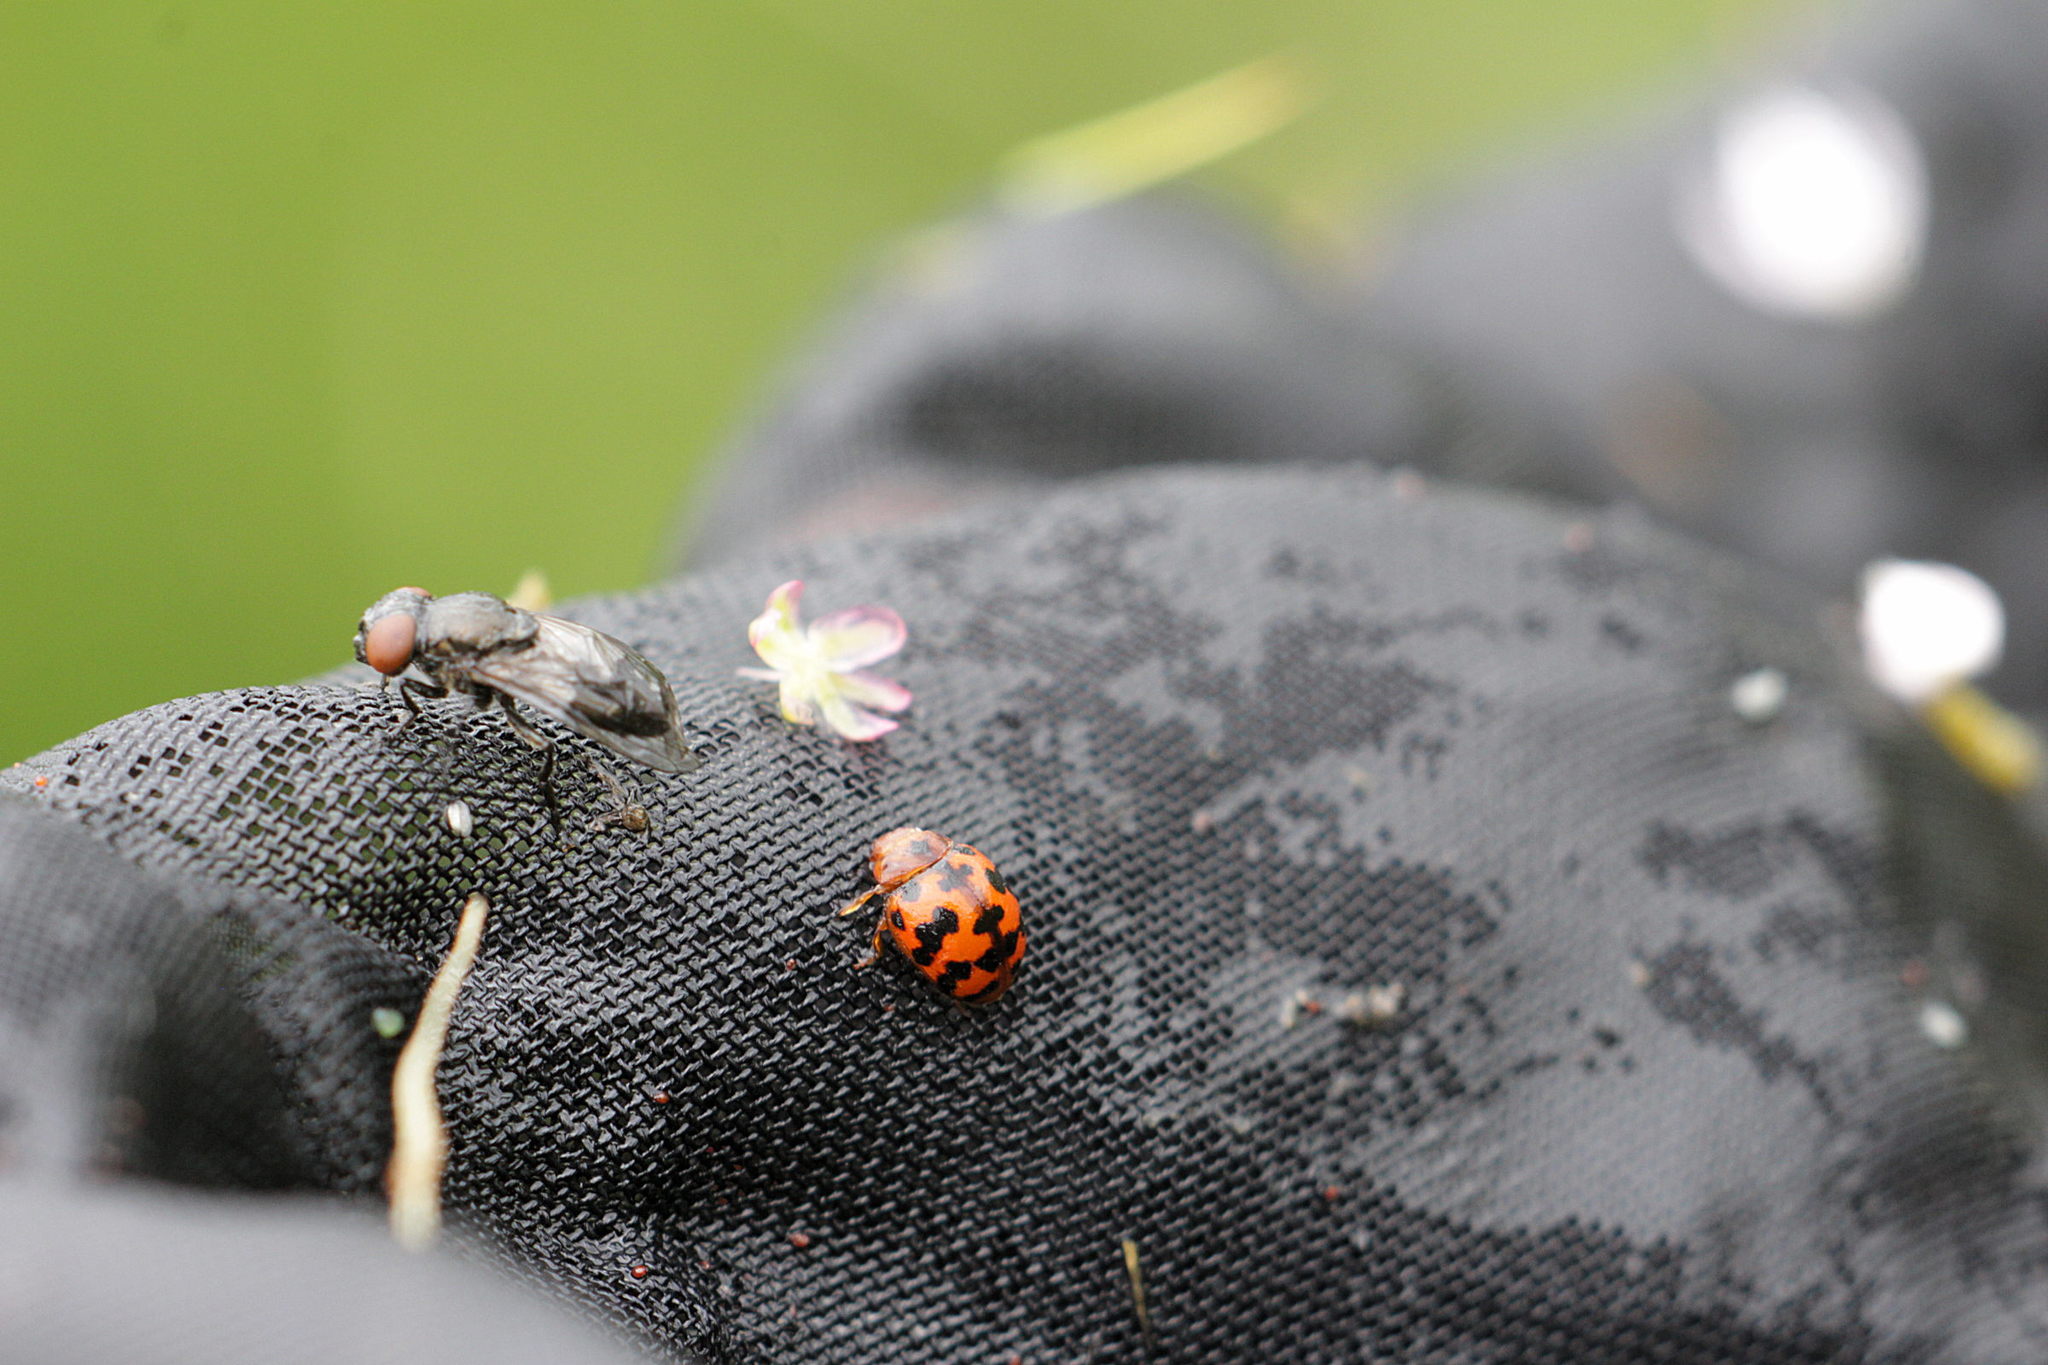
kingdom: Animalia
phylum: Arthropoda
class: Insecta
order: Coleoptera
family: Coccinellidae
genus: Subcoccinella
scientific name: Subcoccinella vigintiquatuorpunctata
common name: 24-spot ladybird
